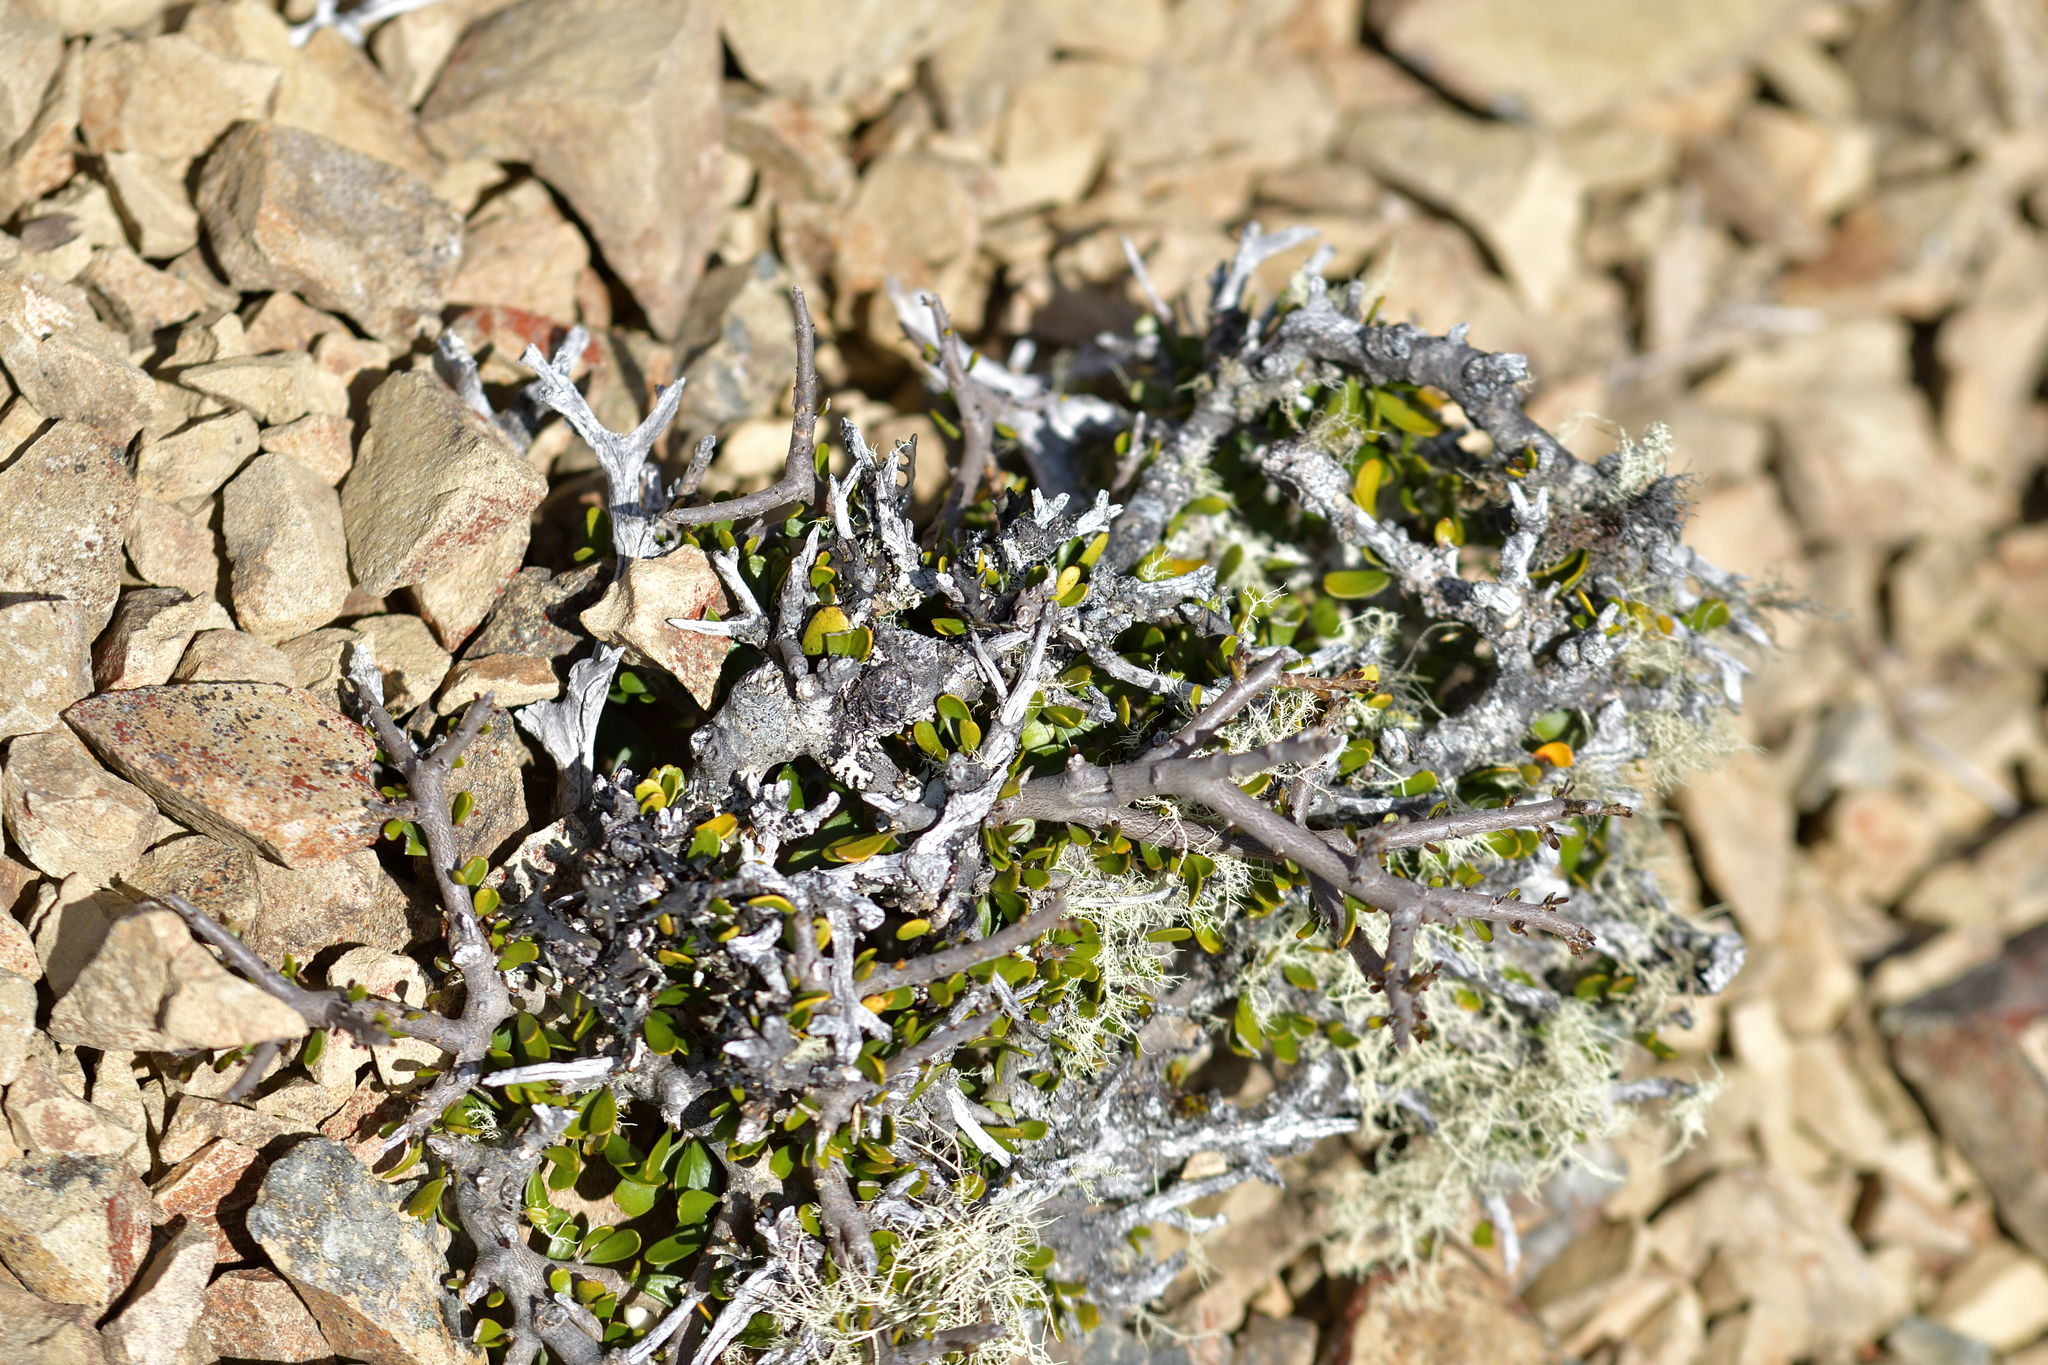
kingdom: Plantae
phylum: Tracheophyta
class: Magnoliopsida
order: Malpighiales
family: Violaceae
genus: Melicytus
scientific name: Melicytus alpinus
